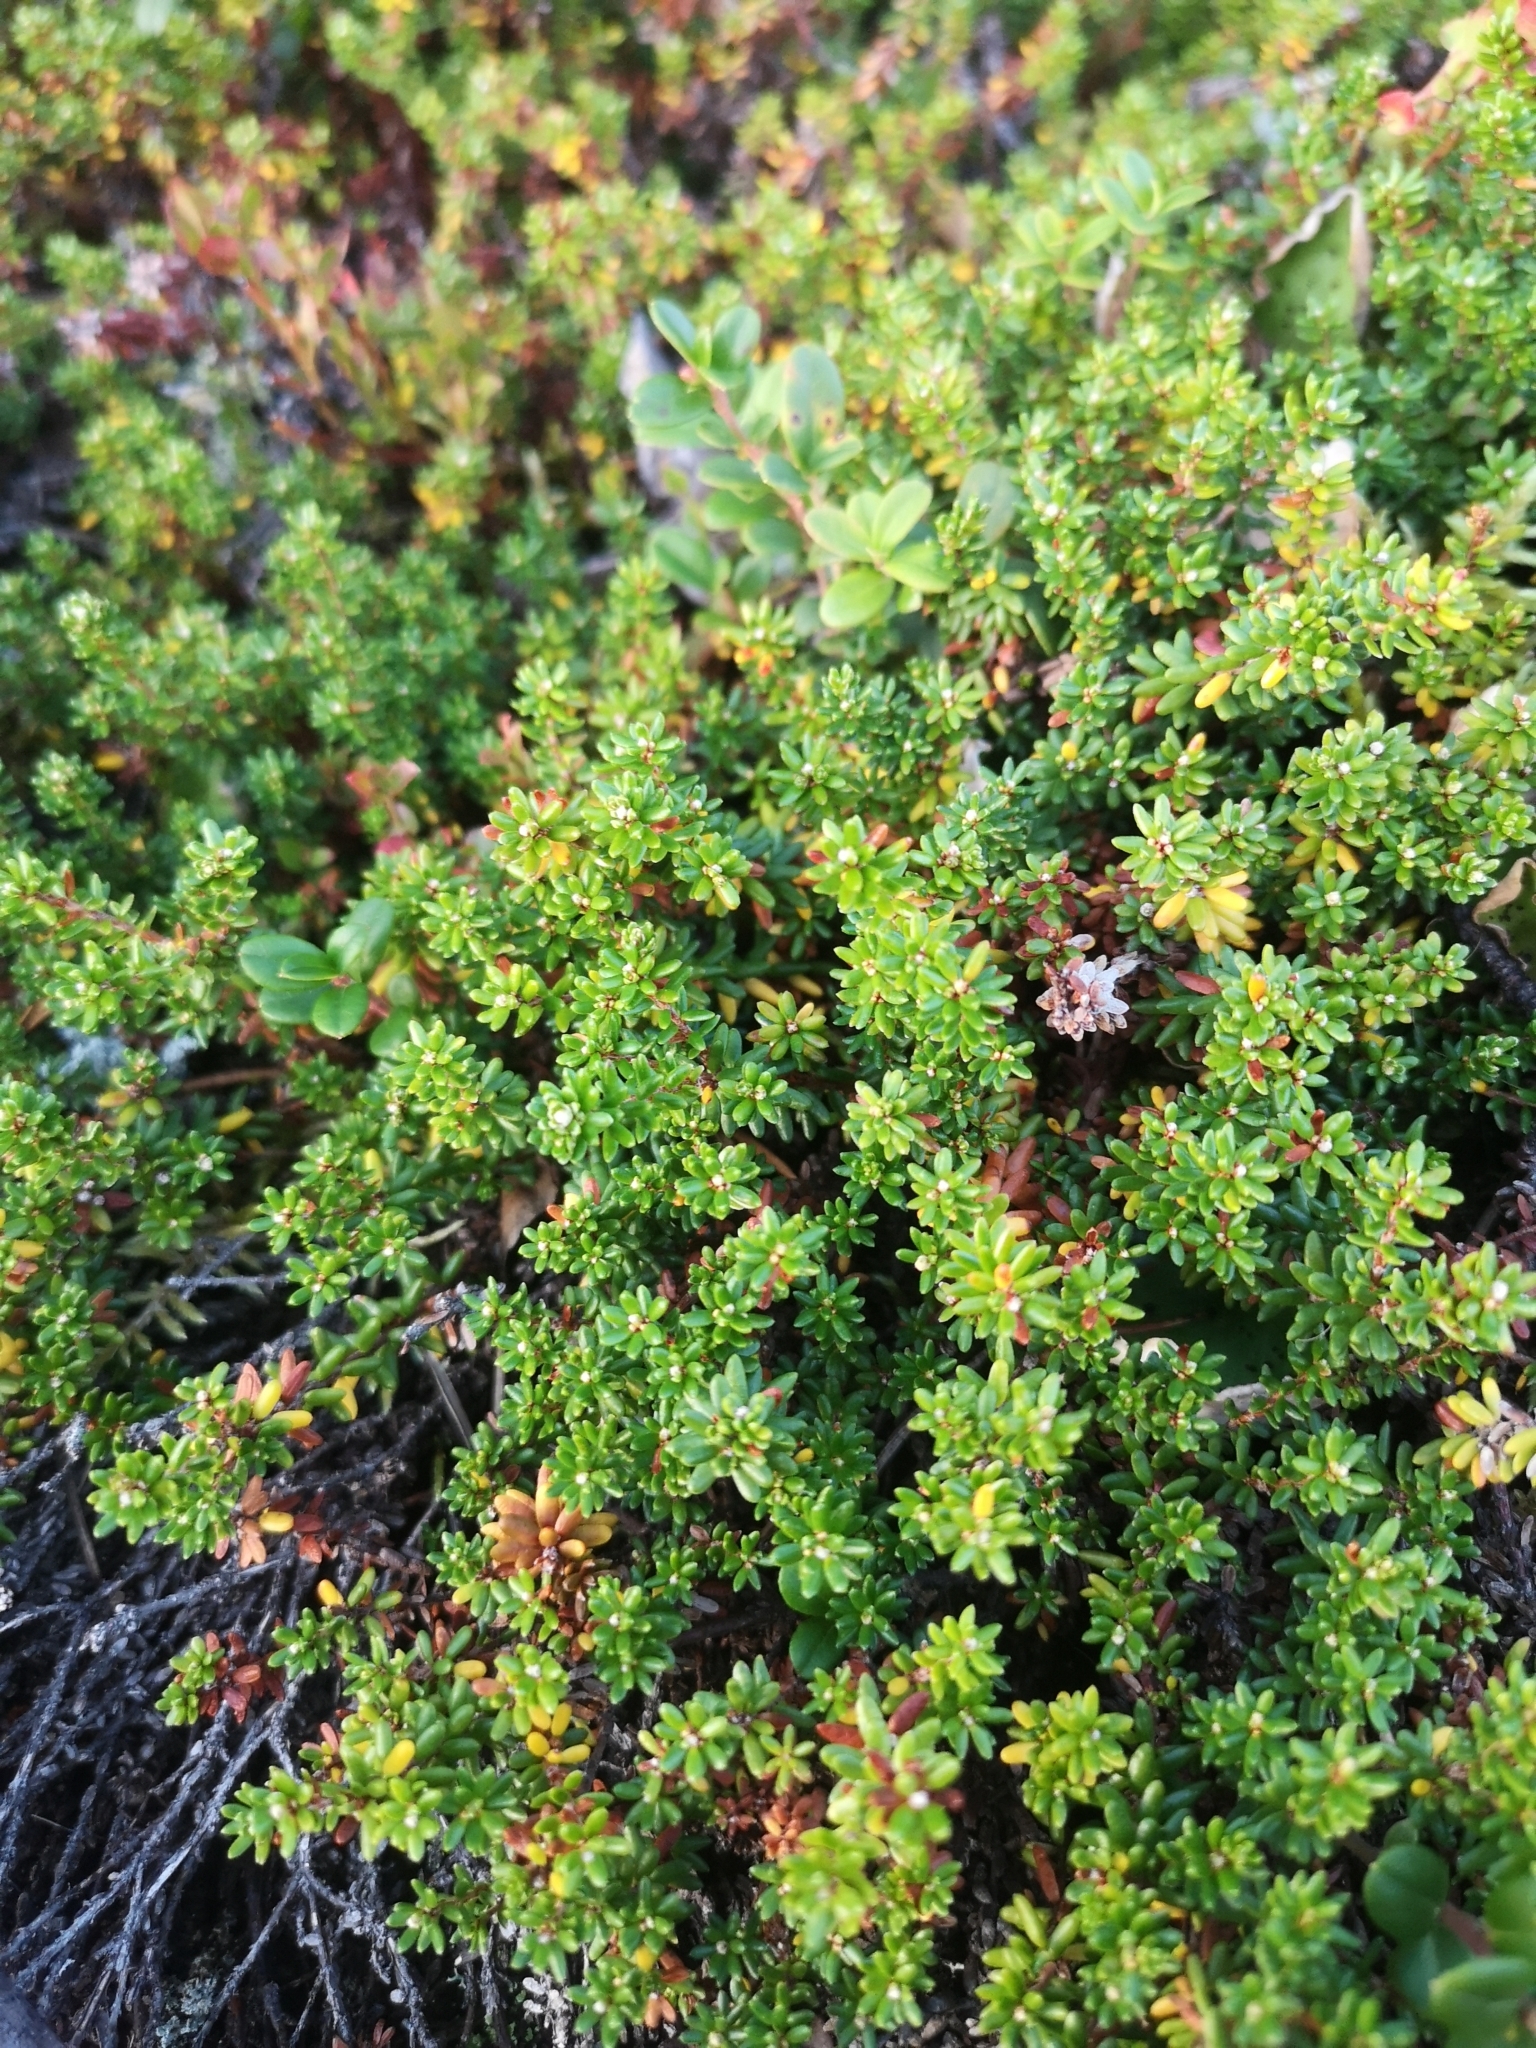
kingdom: Plantae
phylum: Tracheophyta
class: Magnoliopsida
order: Ericales
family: Ericaceae
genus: Empetrum
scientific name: Empetrum nigrum
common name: Black crowberry
